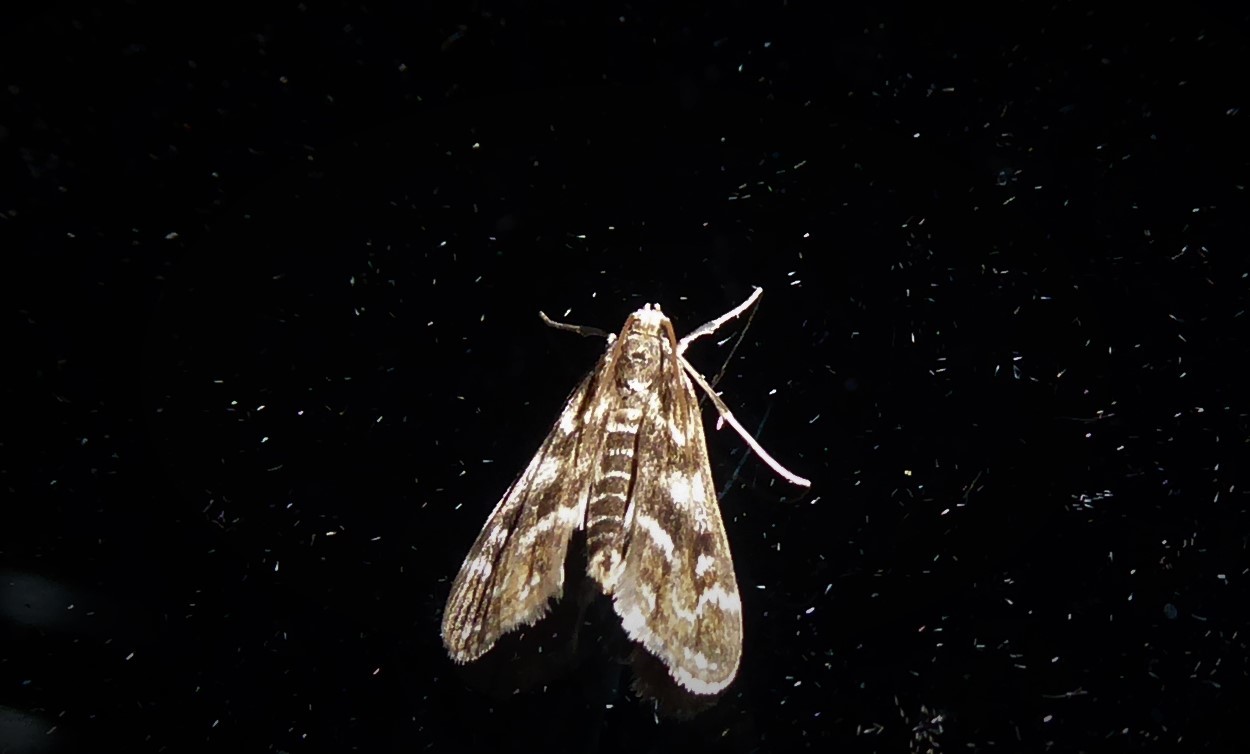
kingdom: Animalia
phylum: Arthropoda
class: Insecta
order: Lepidoptera
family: Crambidae
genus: Hygraula
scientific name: Hygraula nitens
